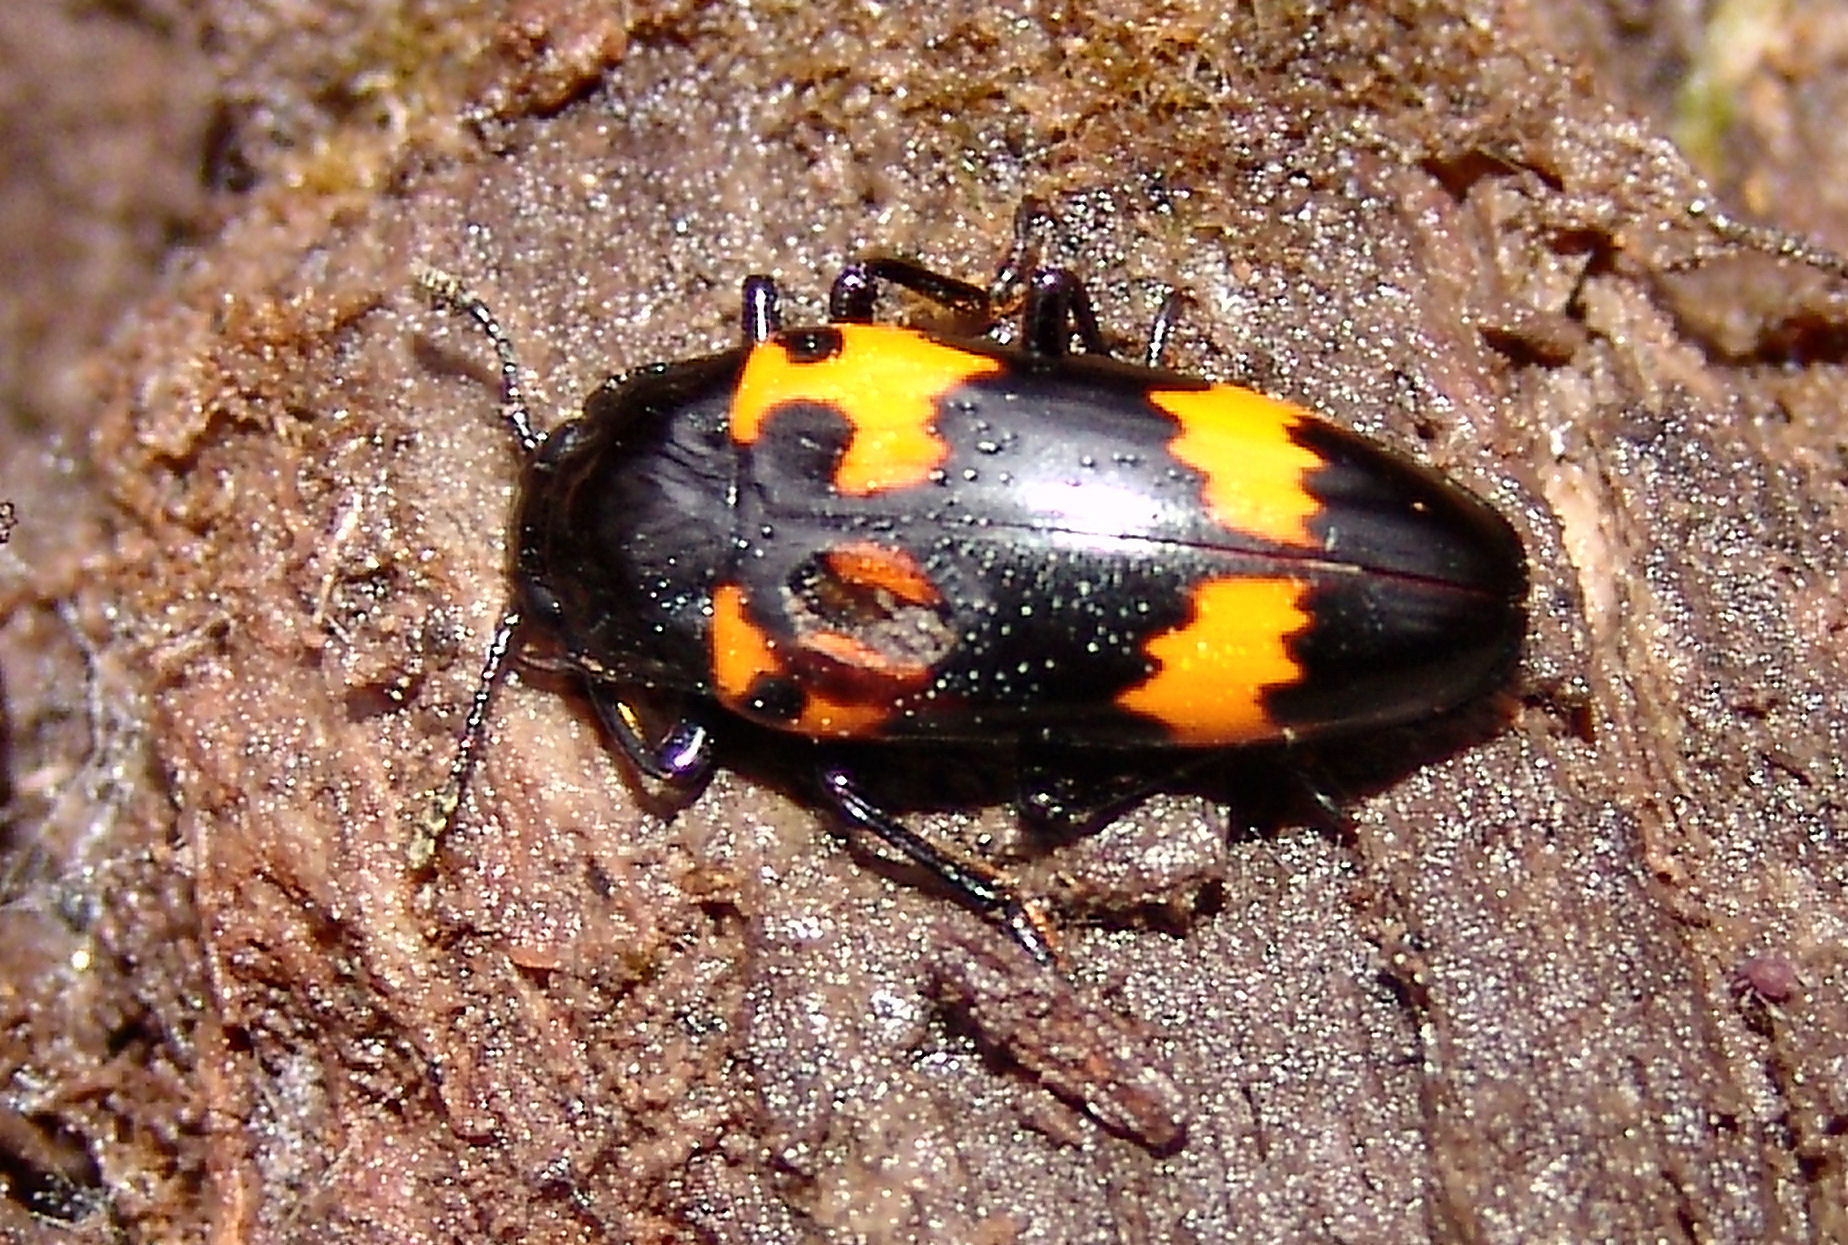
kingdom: Animalia
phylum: Arthropoda
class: Insecta
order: Coleoptera
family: Erotylidae
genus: Megalodacne
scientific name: Megalodacne heros
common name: Pleasing fungus beetle
